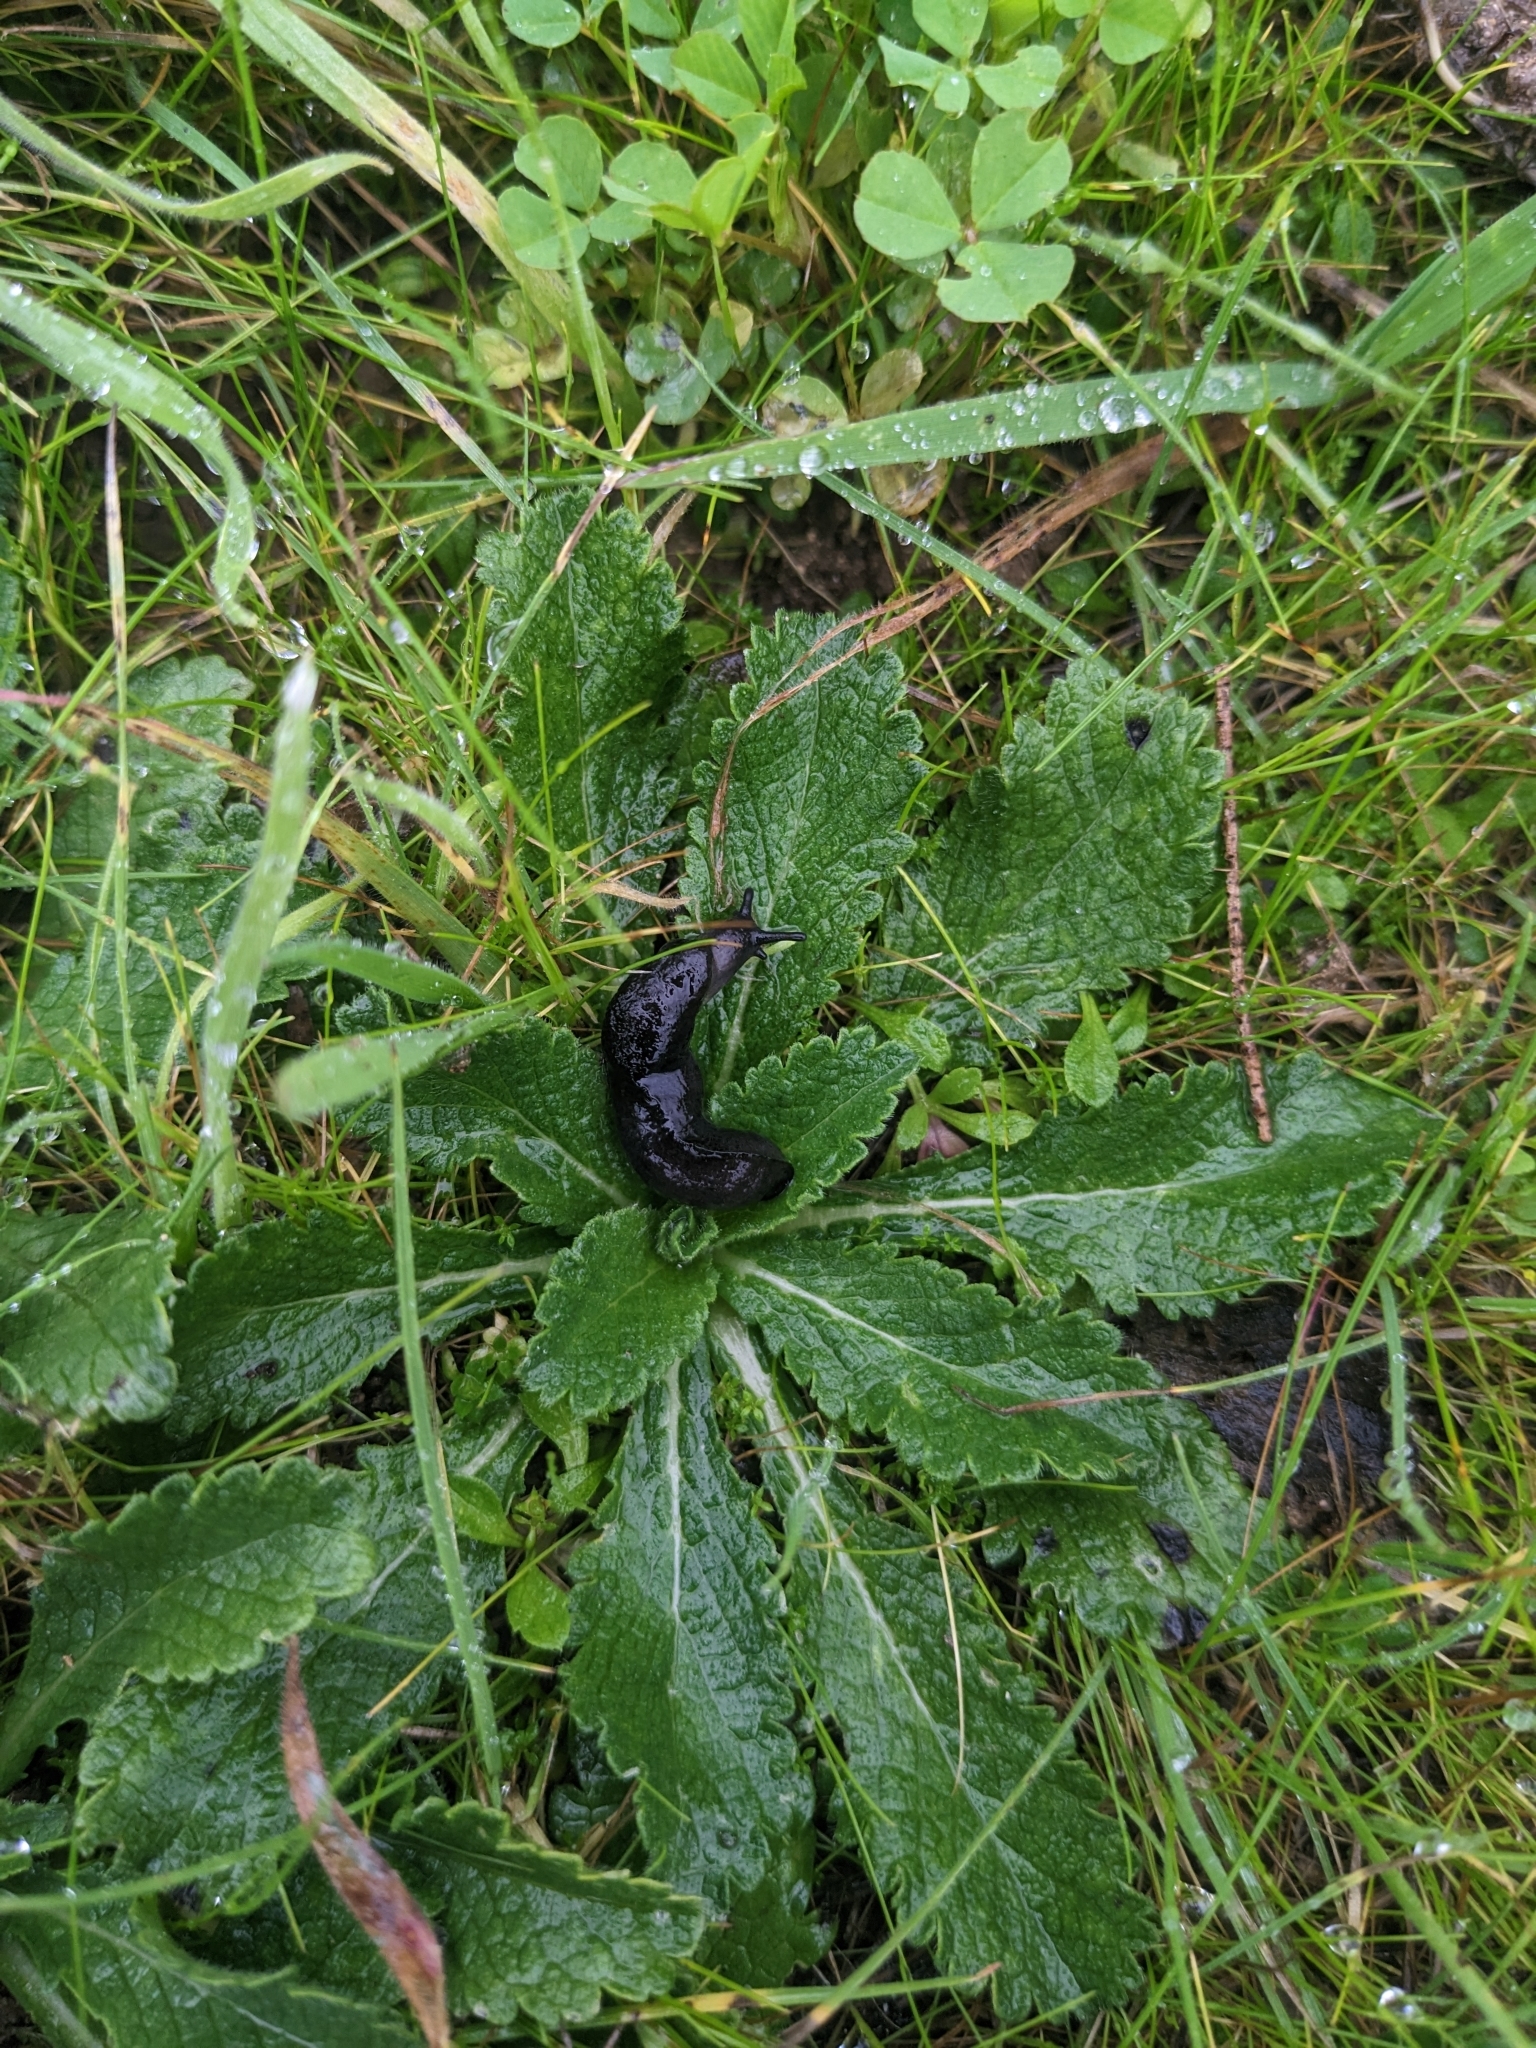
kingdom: Animalia
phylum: Mollusca
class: Gastropoda
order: Stylommatophora
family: Milacidae
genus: Milax
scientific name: Milax gagates
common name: Greenhouse slug
